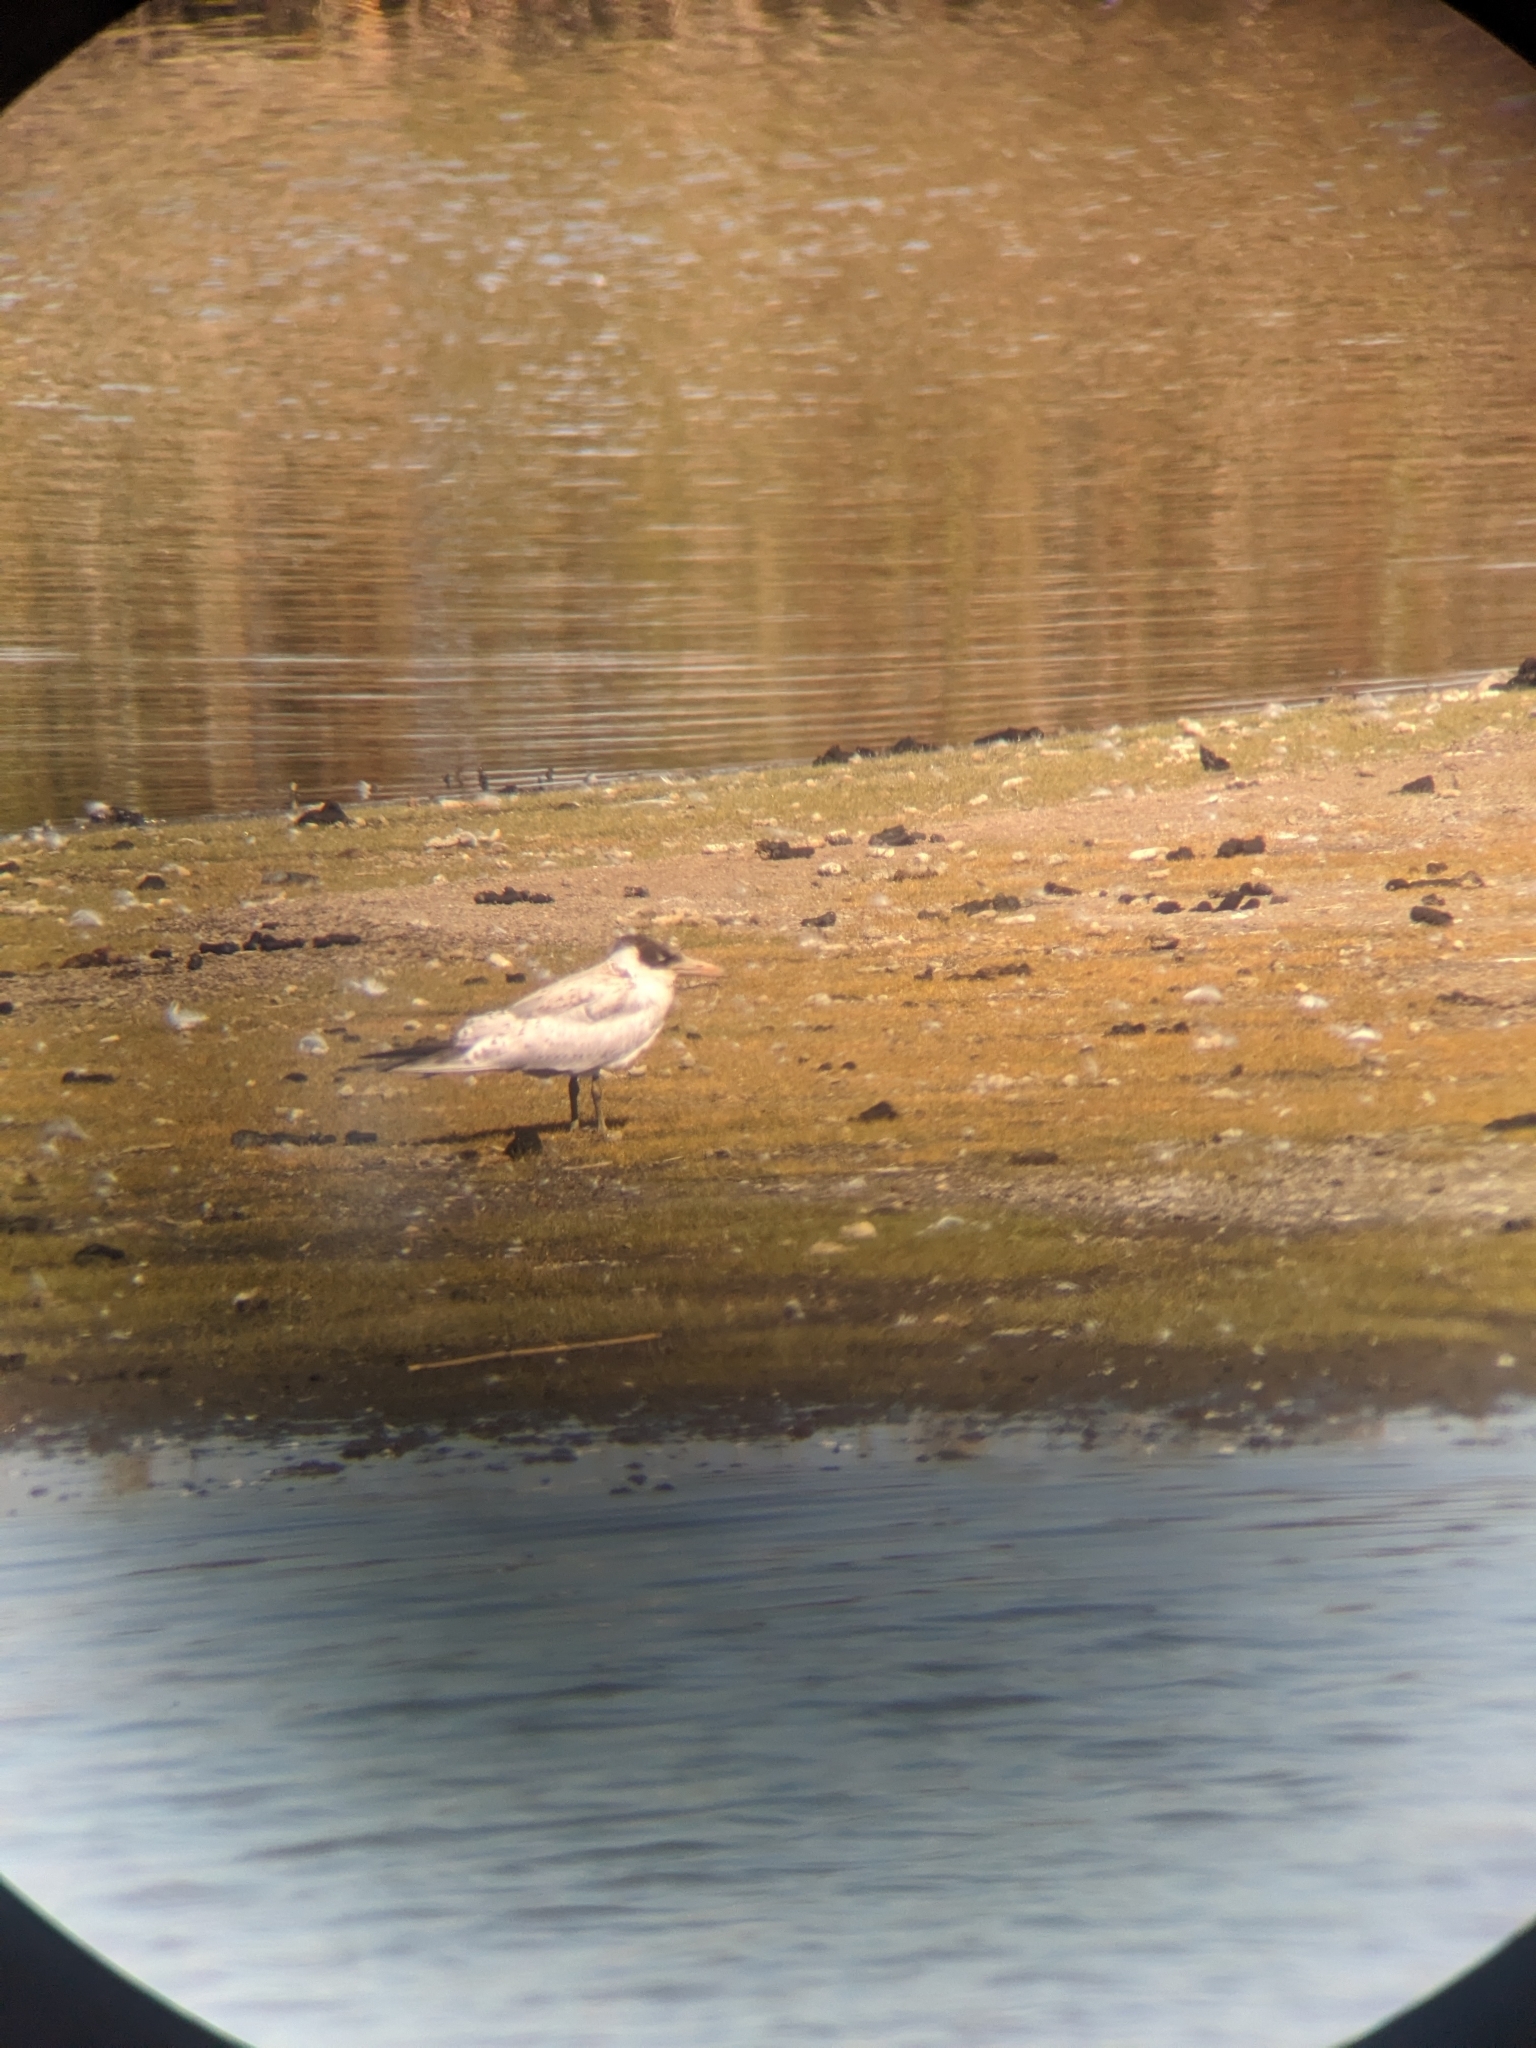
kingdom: Animalia
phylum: Chordata
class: Aves
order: Charadriiformes
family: Laridae
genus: Hydroprogne
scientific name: Hydroprogne caspia
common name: Caspian tern
